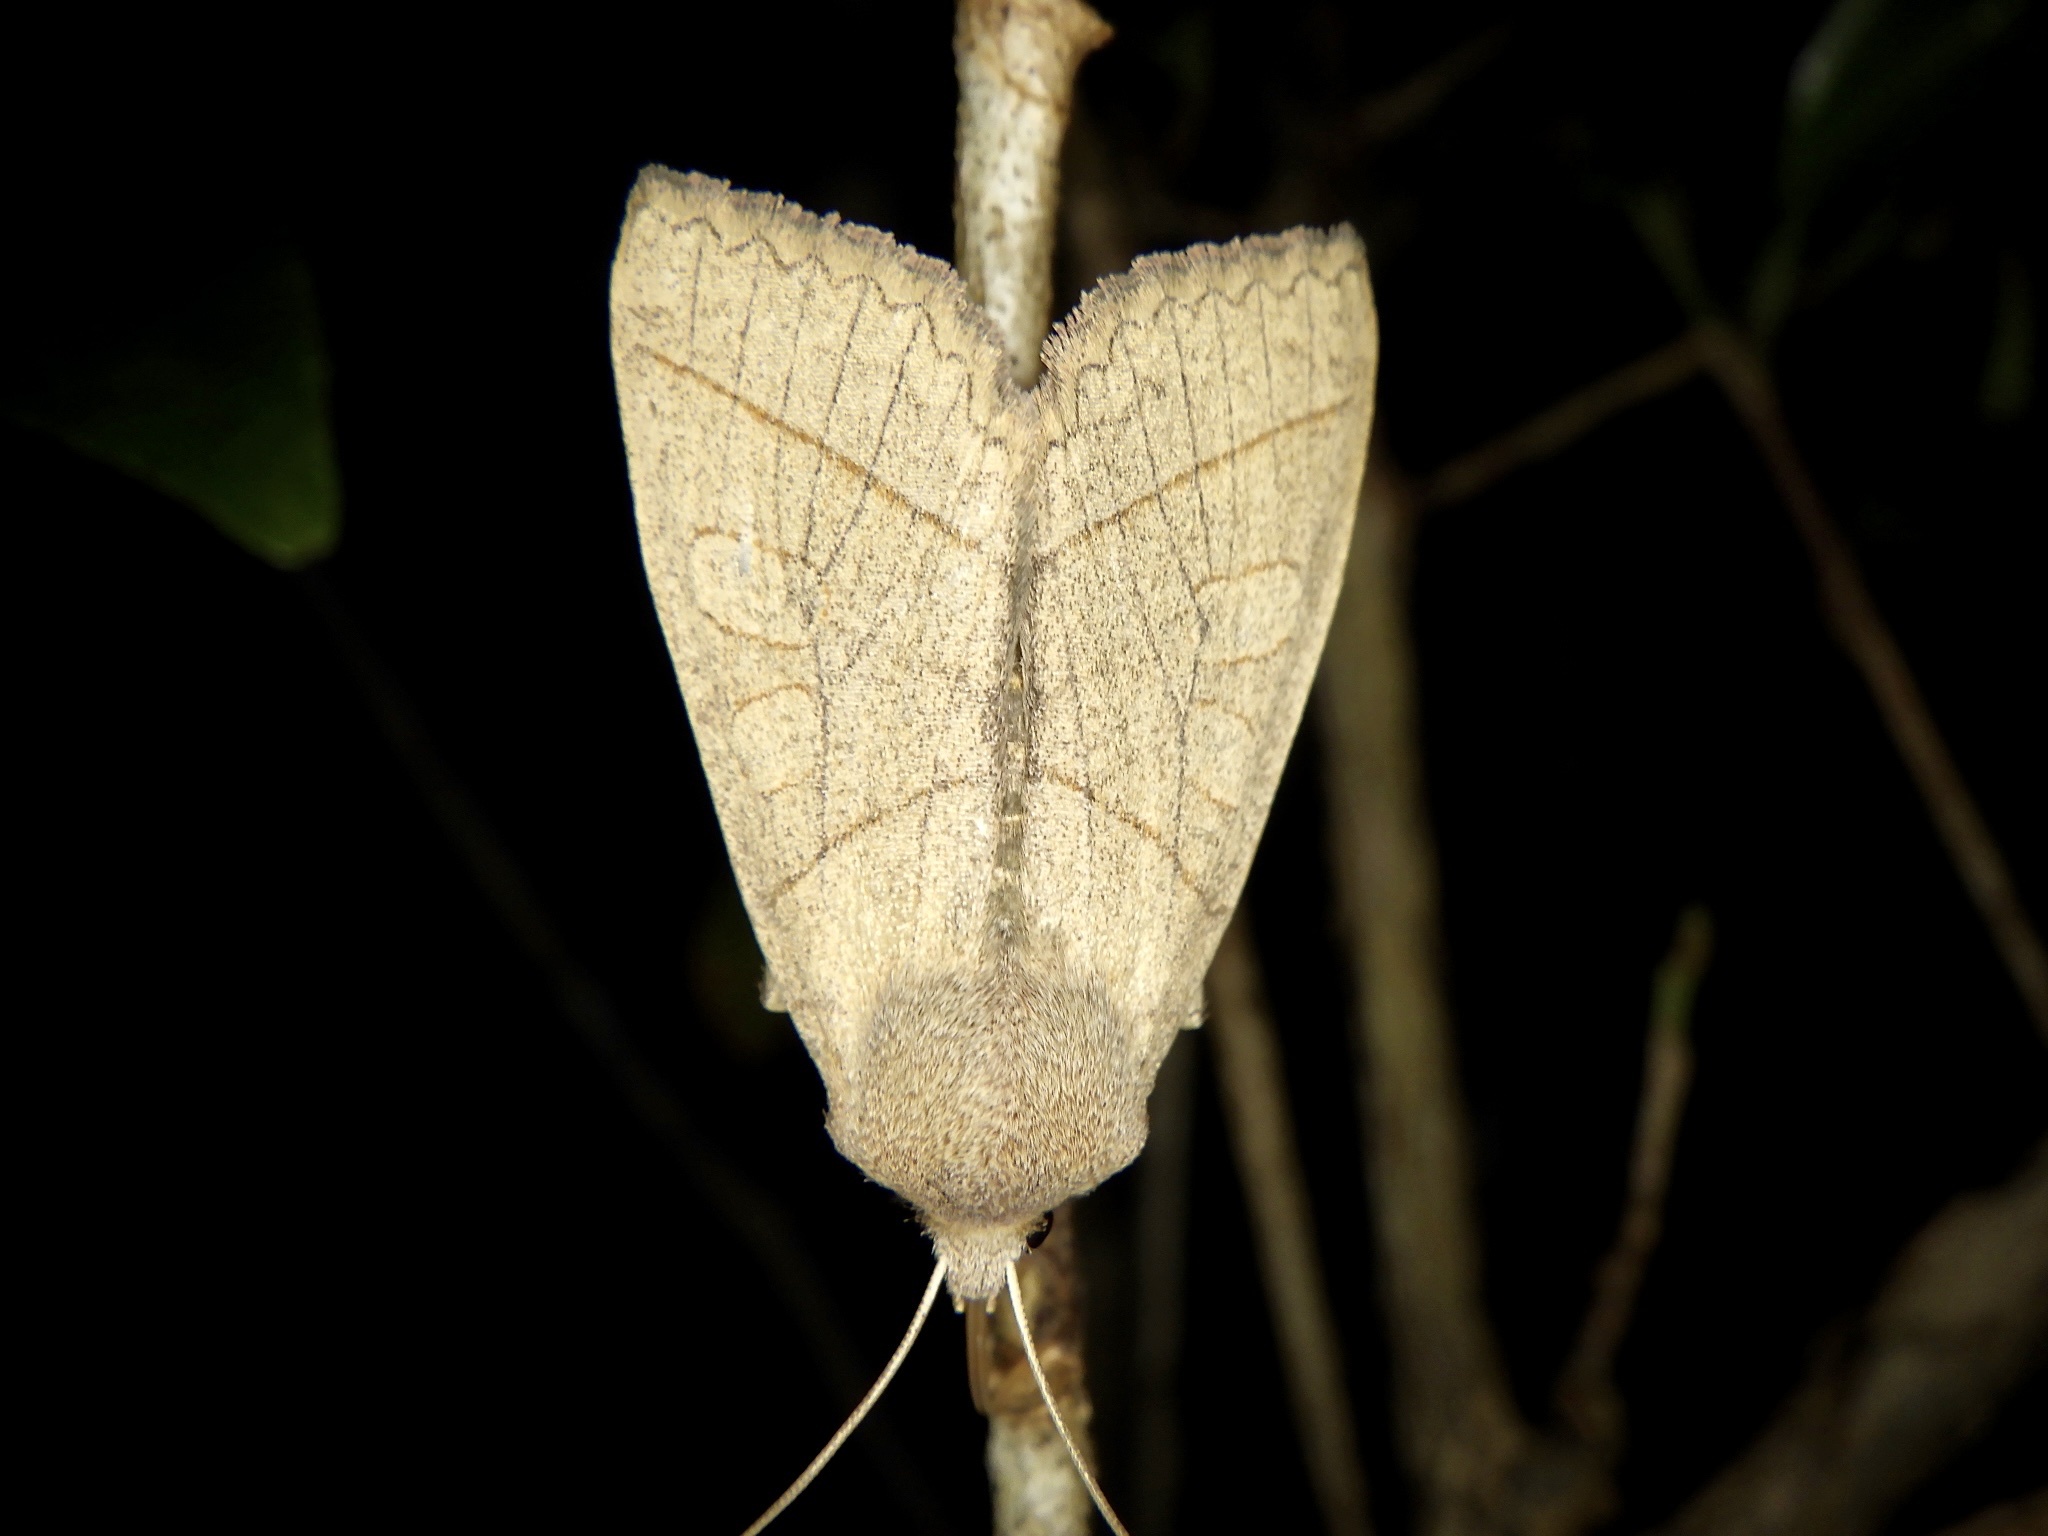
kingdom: Animalia
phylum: Arthropoda
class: Insecta
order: Lepidoptera
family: Noctuidae
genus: Telorta
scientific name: Telorta divergens
